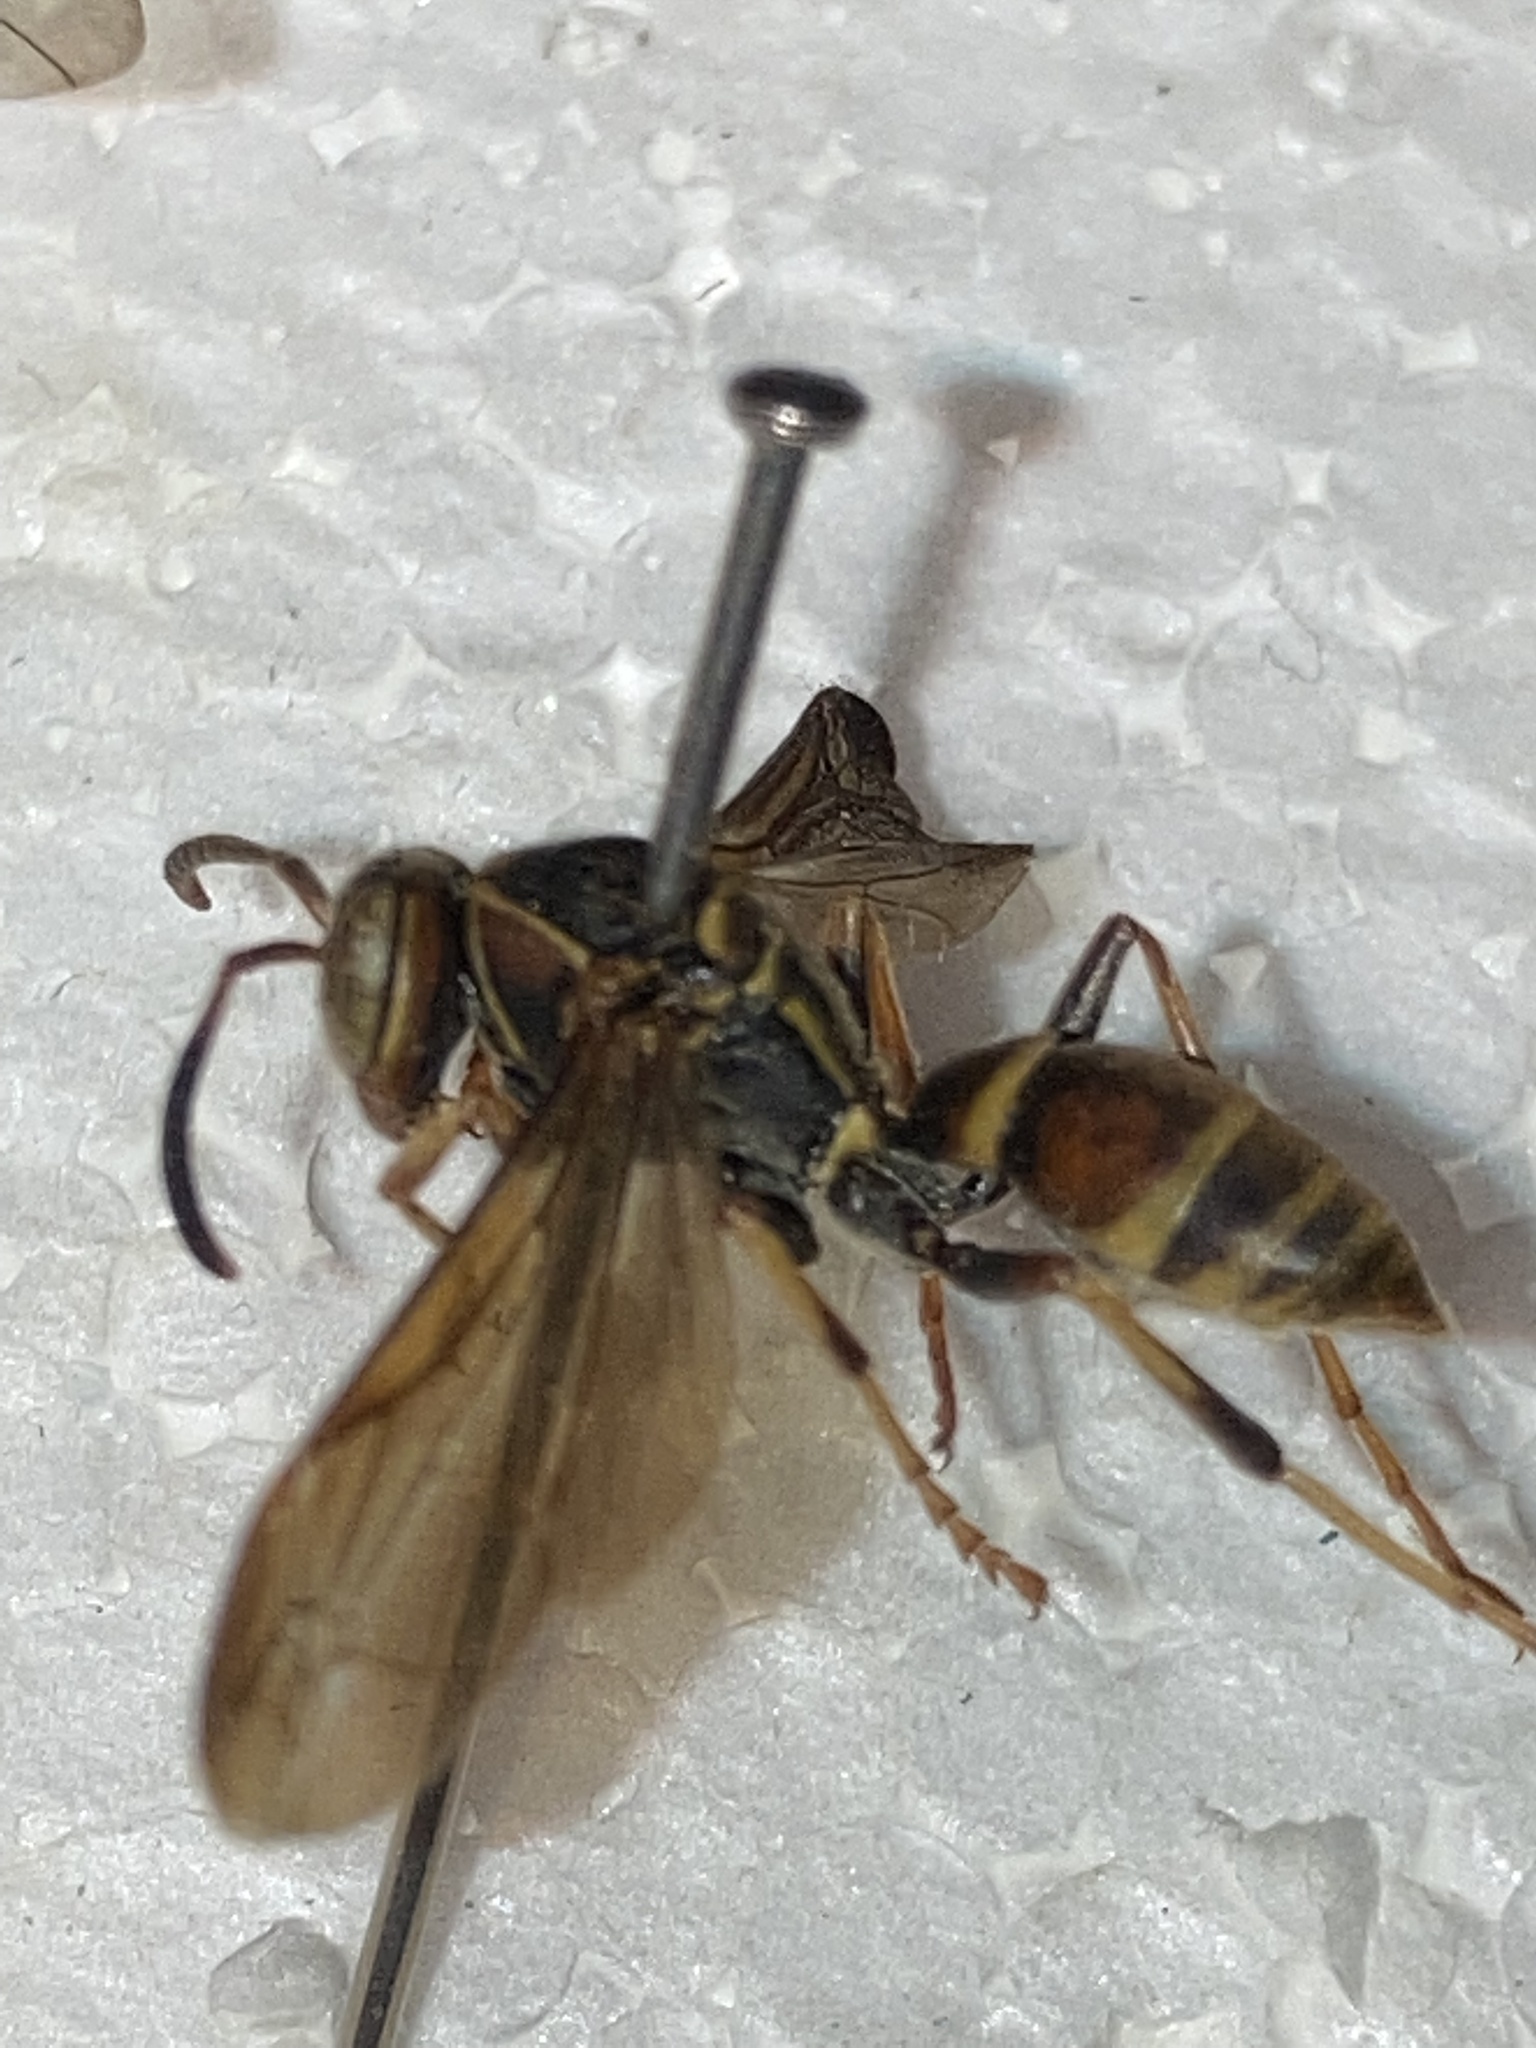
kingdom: Animalia
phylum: Arthropoda
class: Insecta
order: Hymenoptera
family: Eumenidae
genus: Polistes
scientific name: Polistes dorsalis
